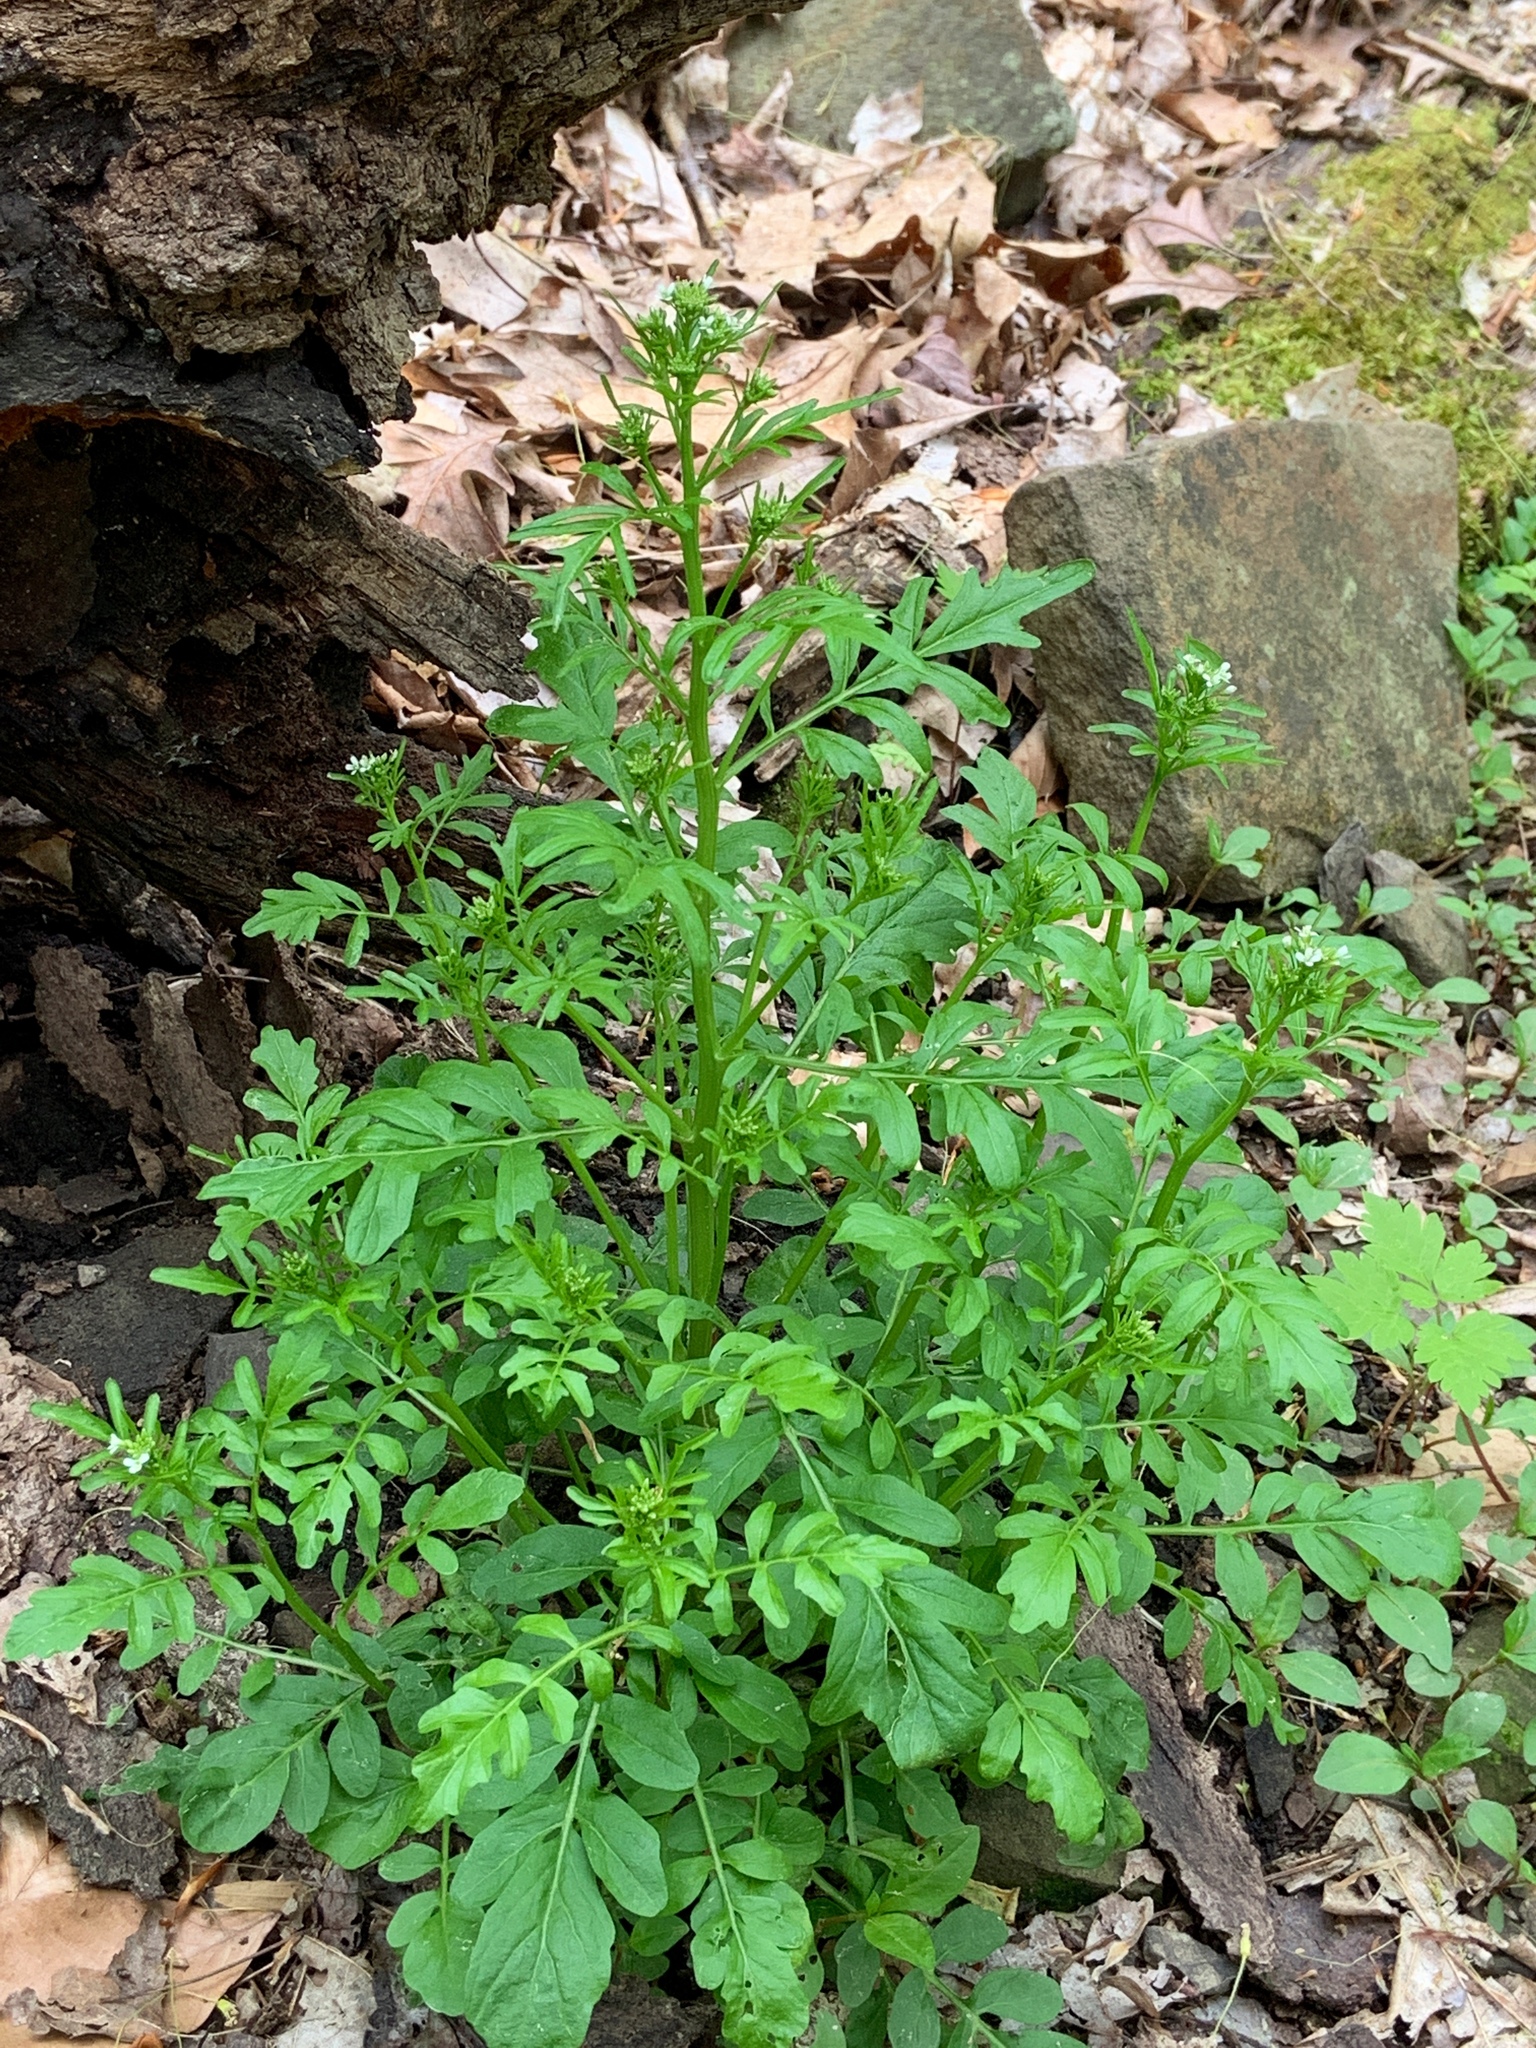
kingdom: Plantae
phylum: Tracheophyta
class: Magnoliopsida
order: Brassicales
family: Brassicaceae
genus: Cardamine
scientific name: Cardamine pensylvanica
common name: Pennsylvania bittercress
